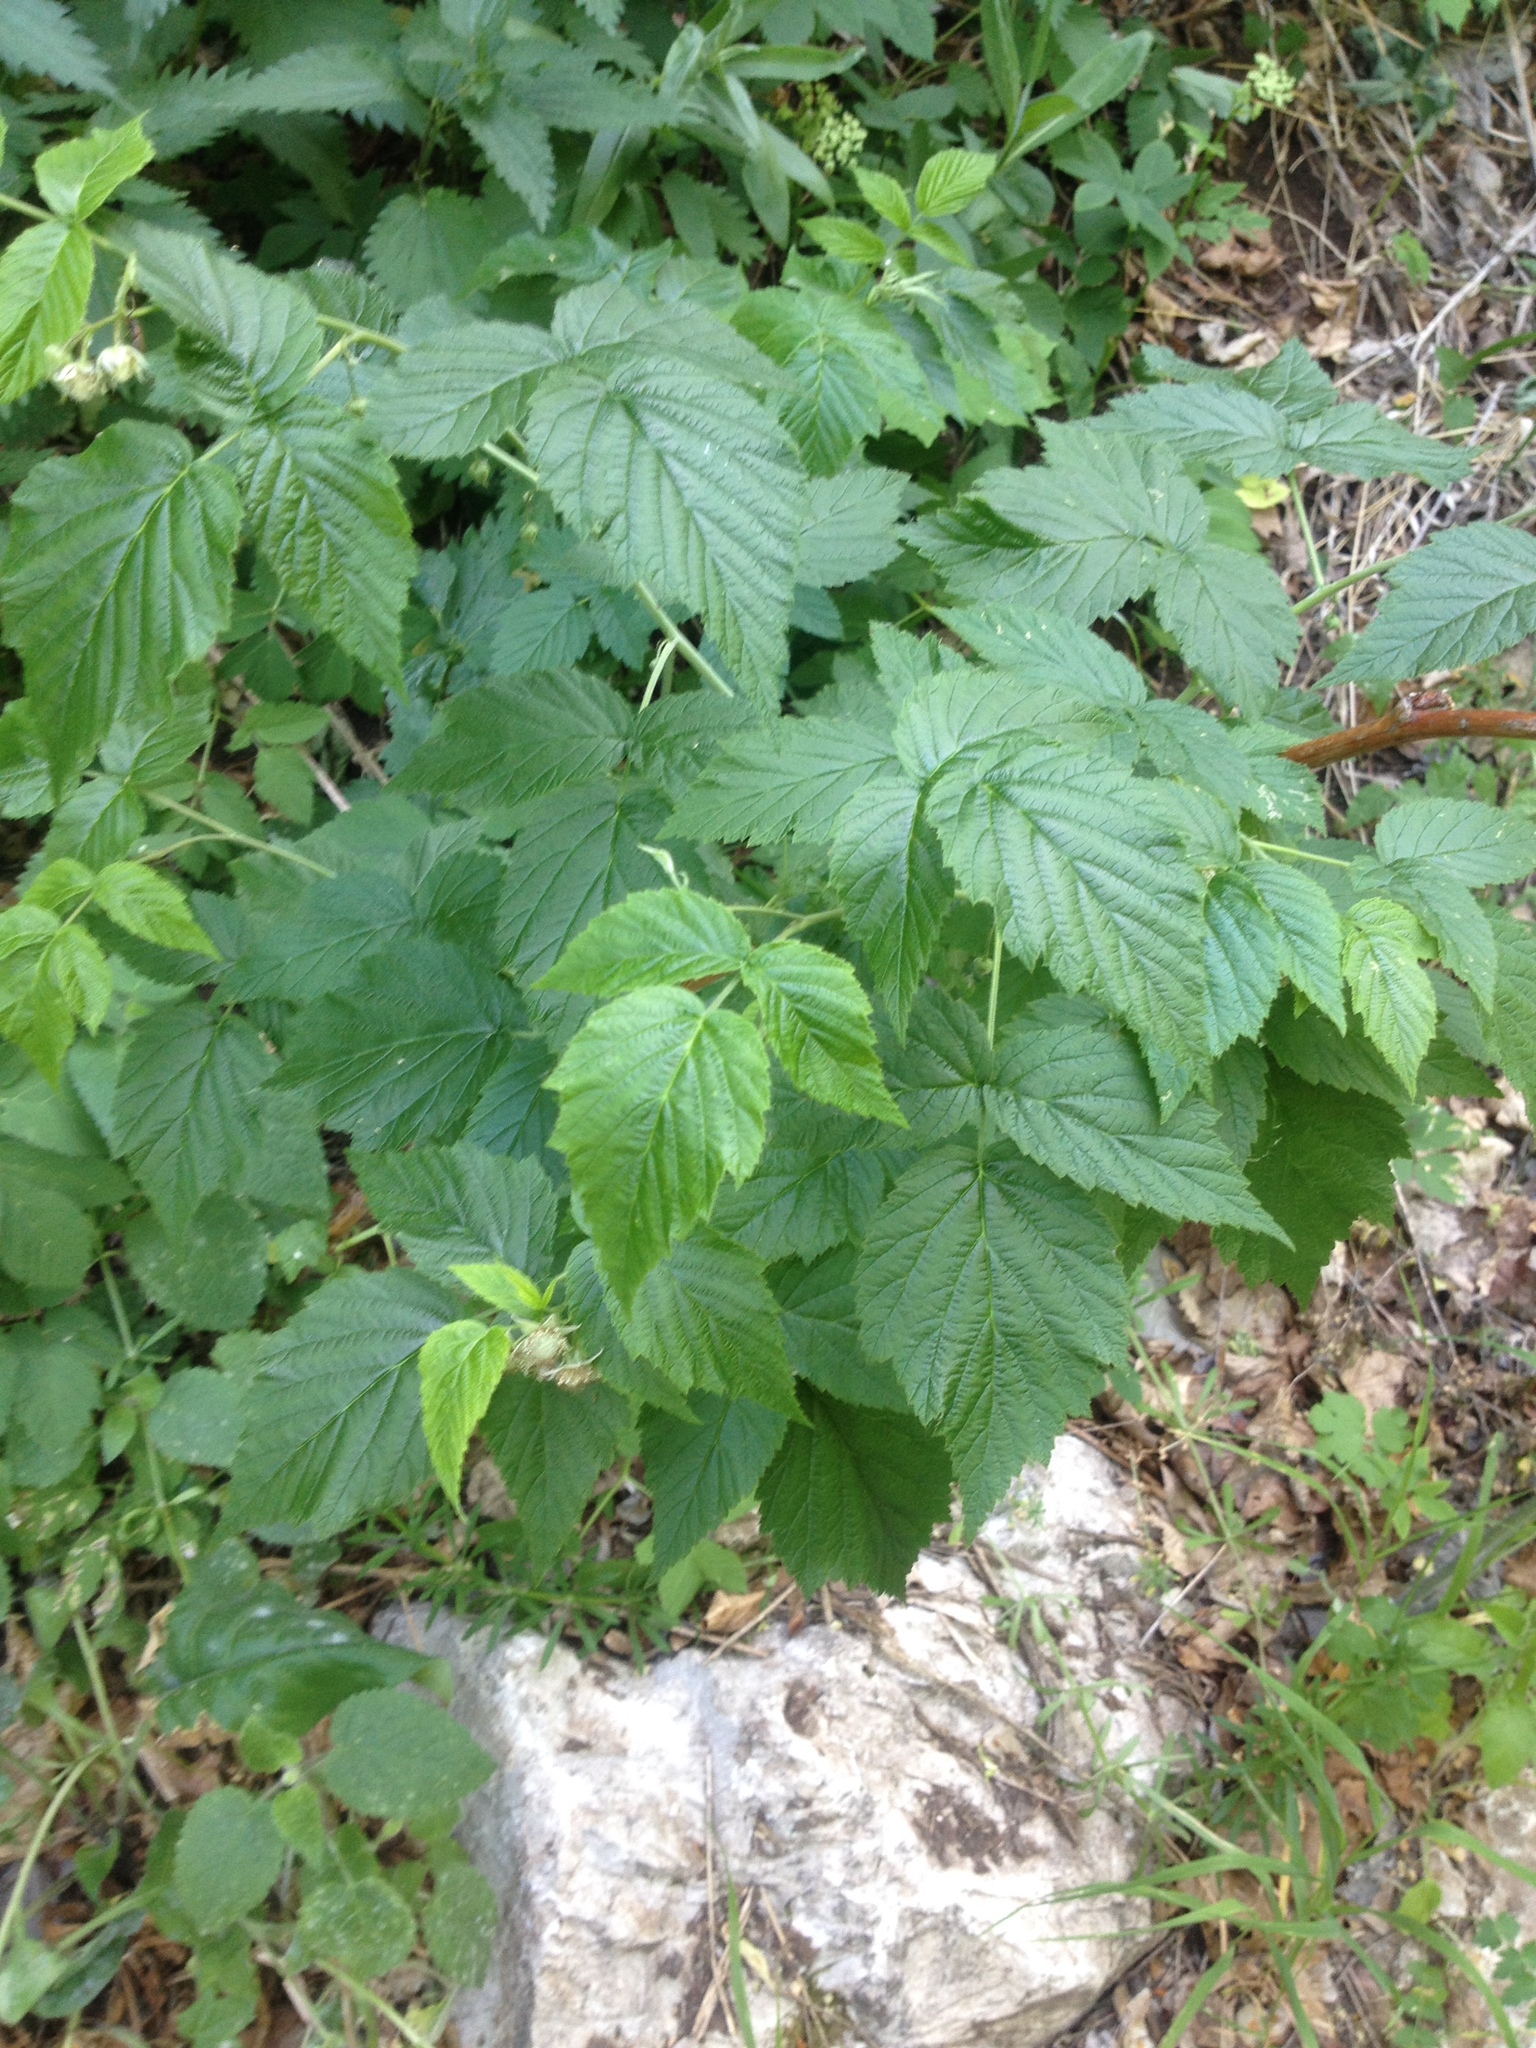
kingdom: Plantae
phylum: Tracheophyta
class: Magnoliopsida
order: Rosales
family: Rosaceae
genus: Rubus
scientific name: Rubus idaeus
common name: Raspberry
